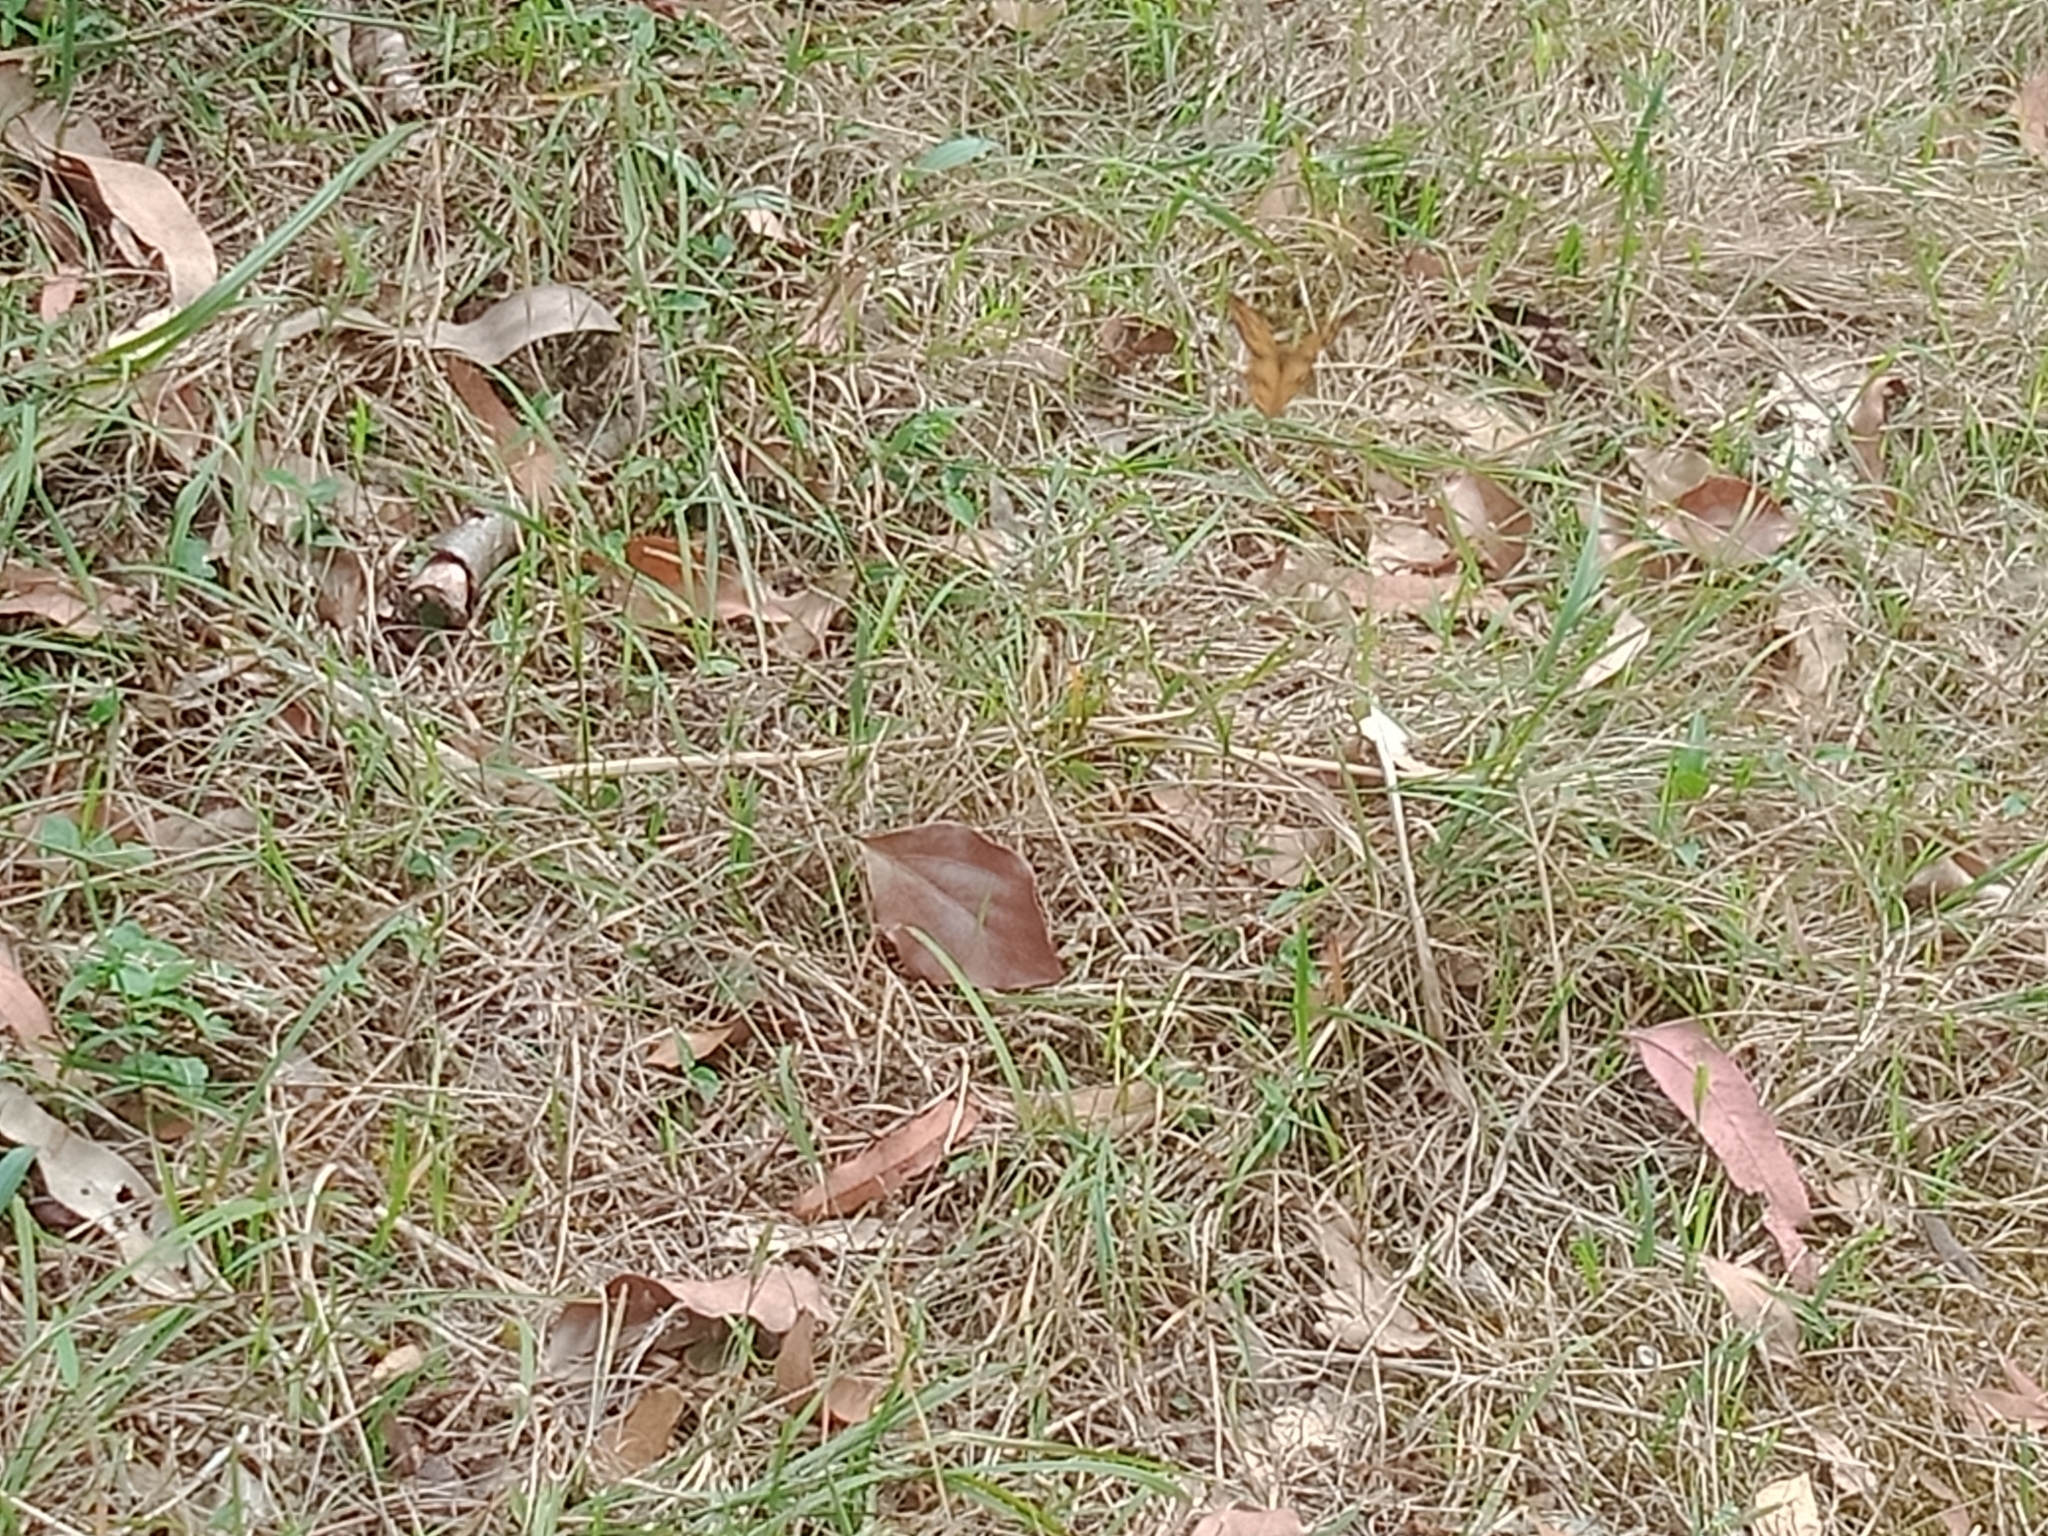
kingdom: Animalia
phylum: Arthropoda
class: Insecta
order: Lepidoptera
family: Nymphalidae
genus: Heteronympha
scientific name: Heteronympha merope
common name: Common brown
